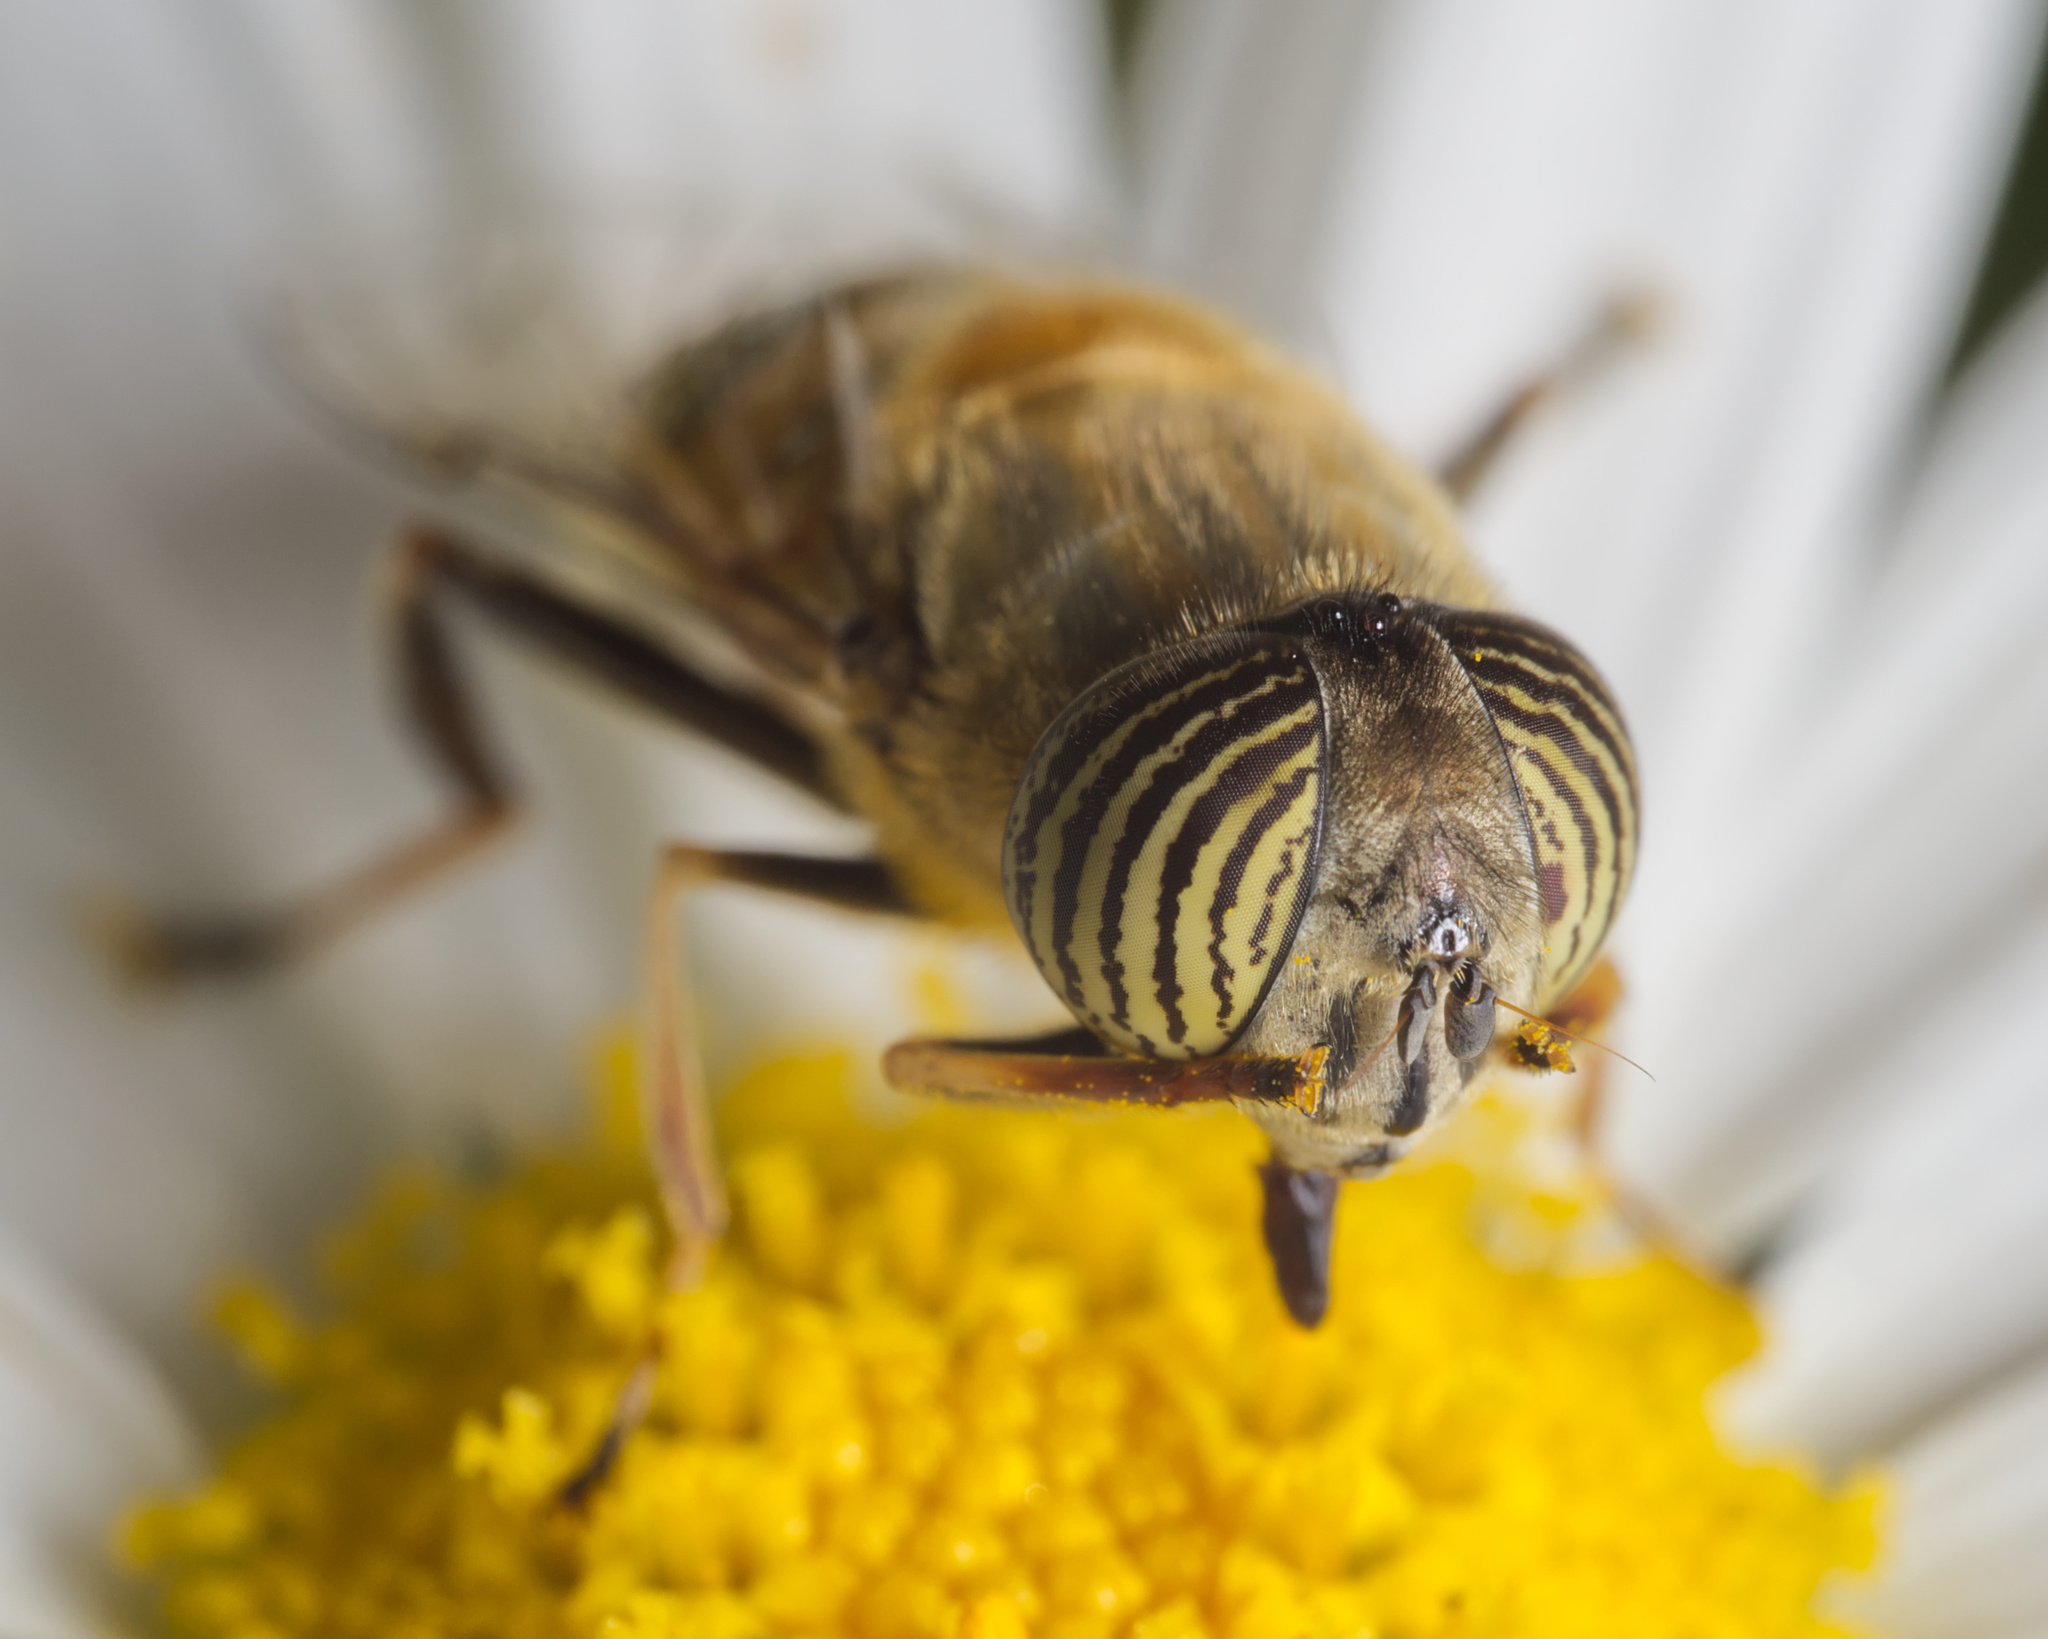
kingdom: Animalia
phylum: Arthropoda
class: Insecta
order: Diptera
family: Syrphidae
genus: Eristalinus
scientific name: Eristalinus taeniops
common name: Syrphid fly
